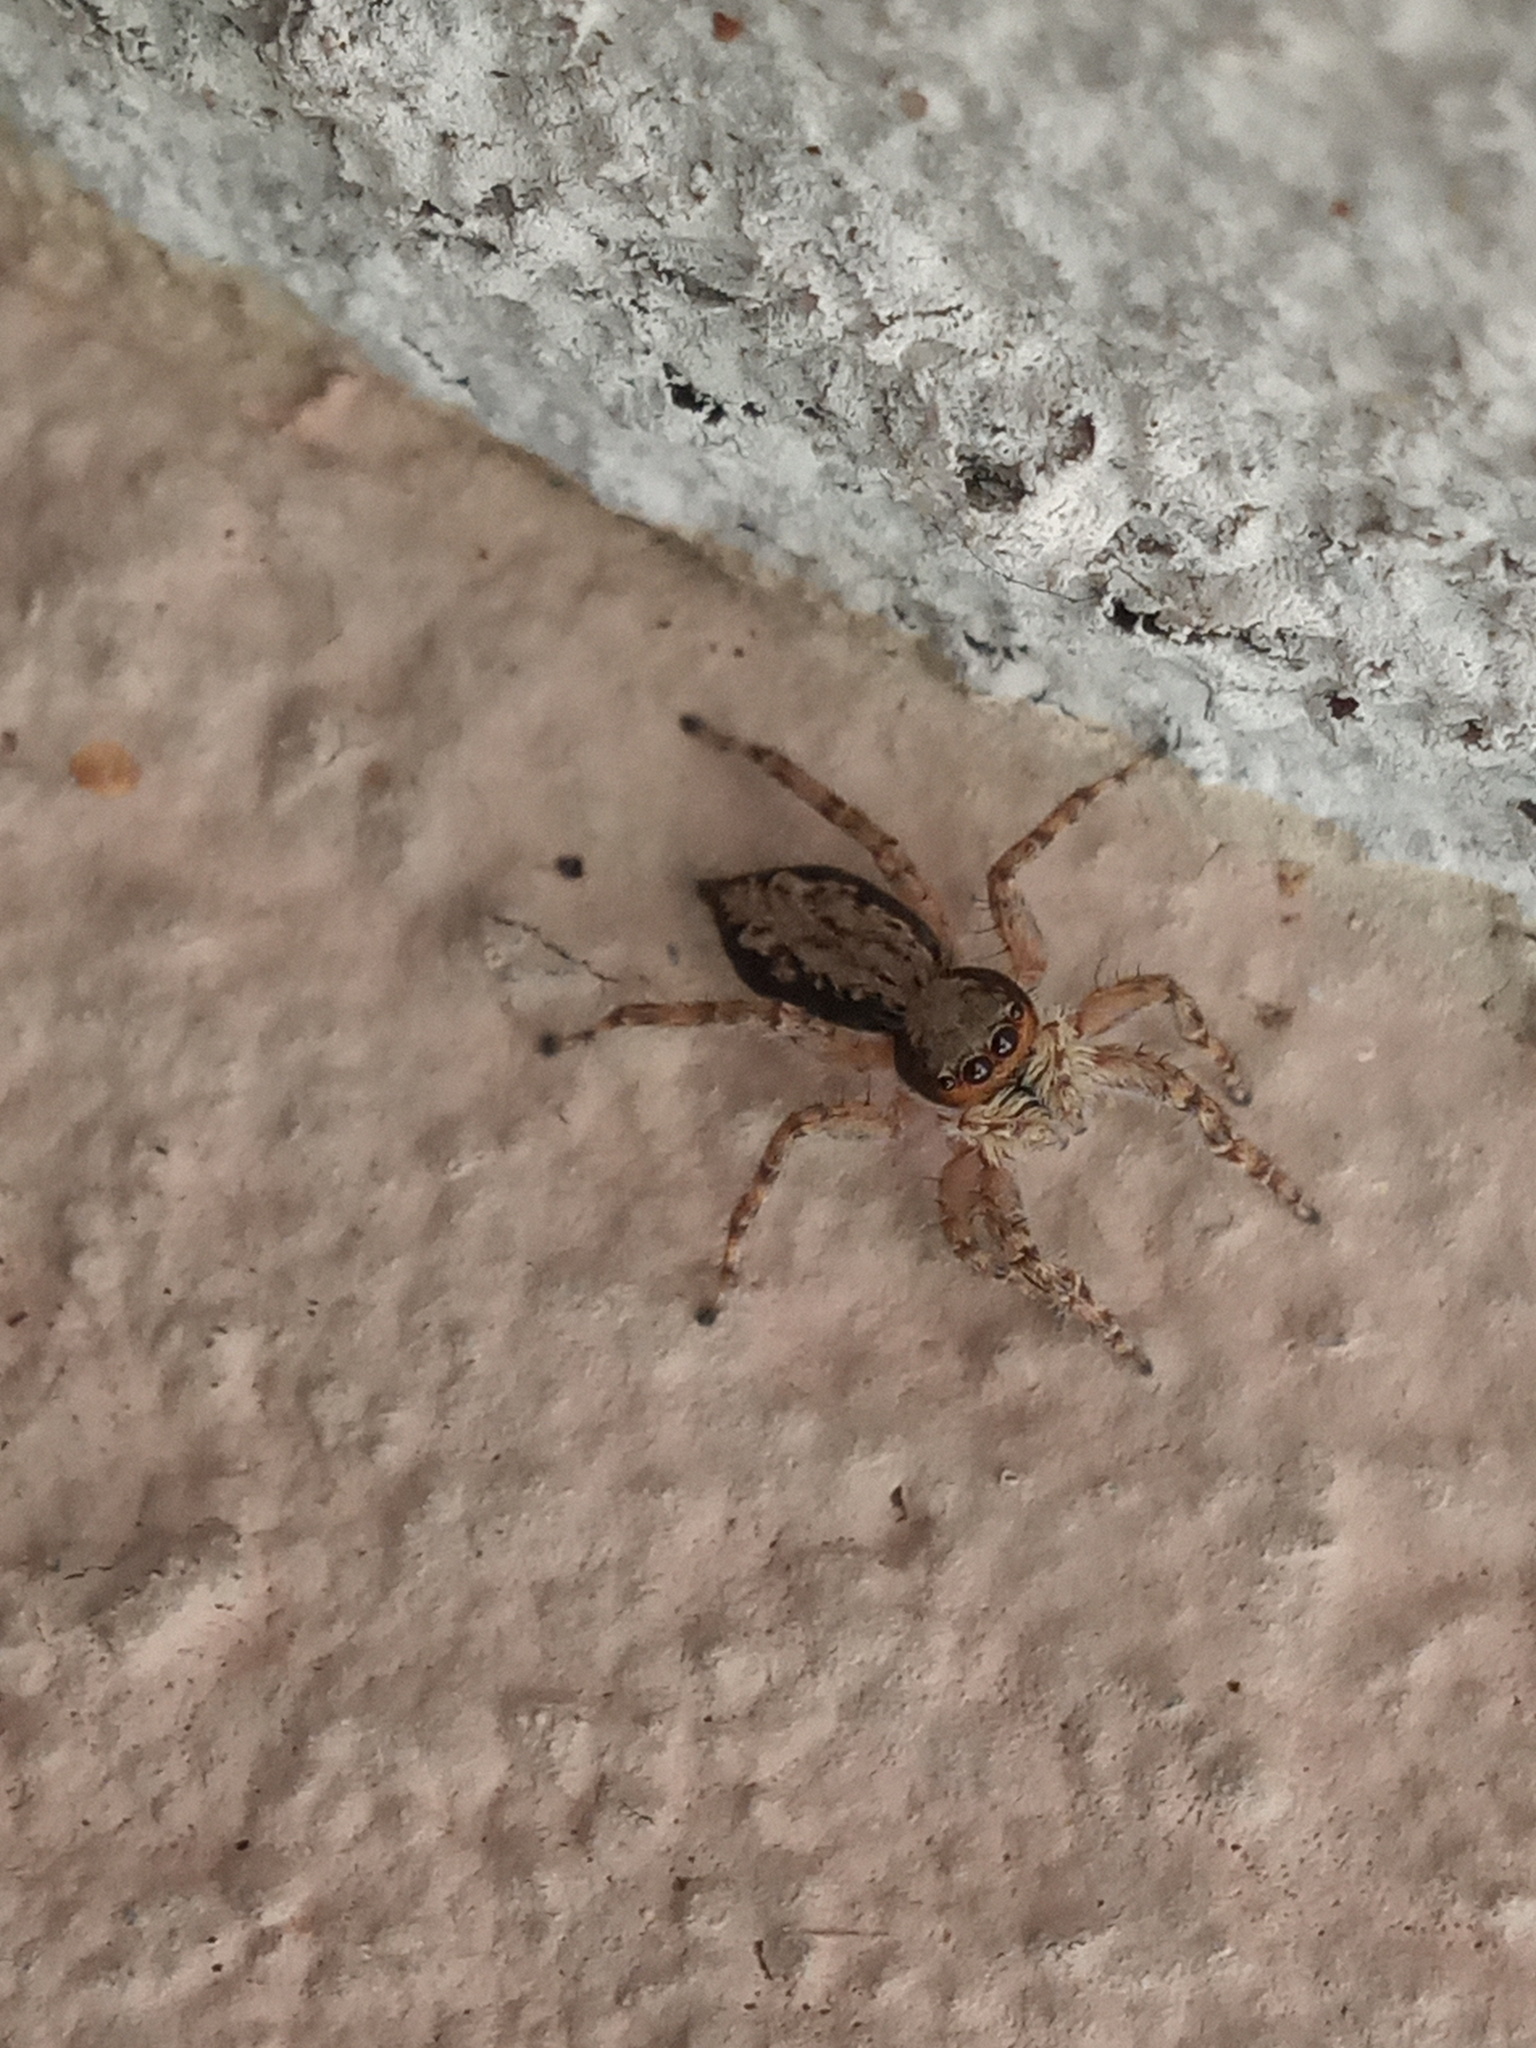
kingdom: Animalia
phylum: Arthropoda
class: Arachnida
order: Araneae
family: Salticidae
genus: Menemerus
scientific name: Menemerus bivittatus
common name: Gray wall jumper
